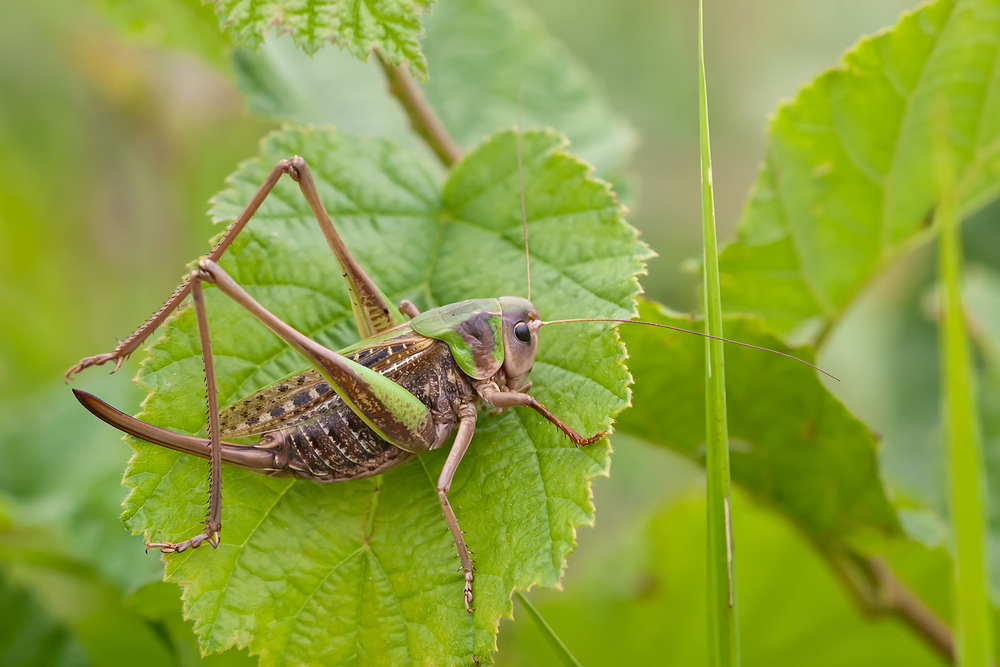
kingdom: Animalia
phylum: Arthropoda
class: Insecta
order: Orthoptera
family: Tettigoniidae
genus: Decticus
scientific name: Decticus verrucivorus
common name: Wart-biter
